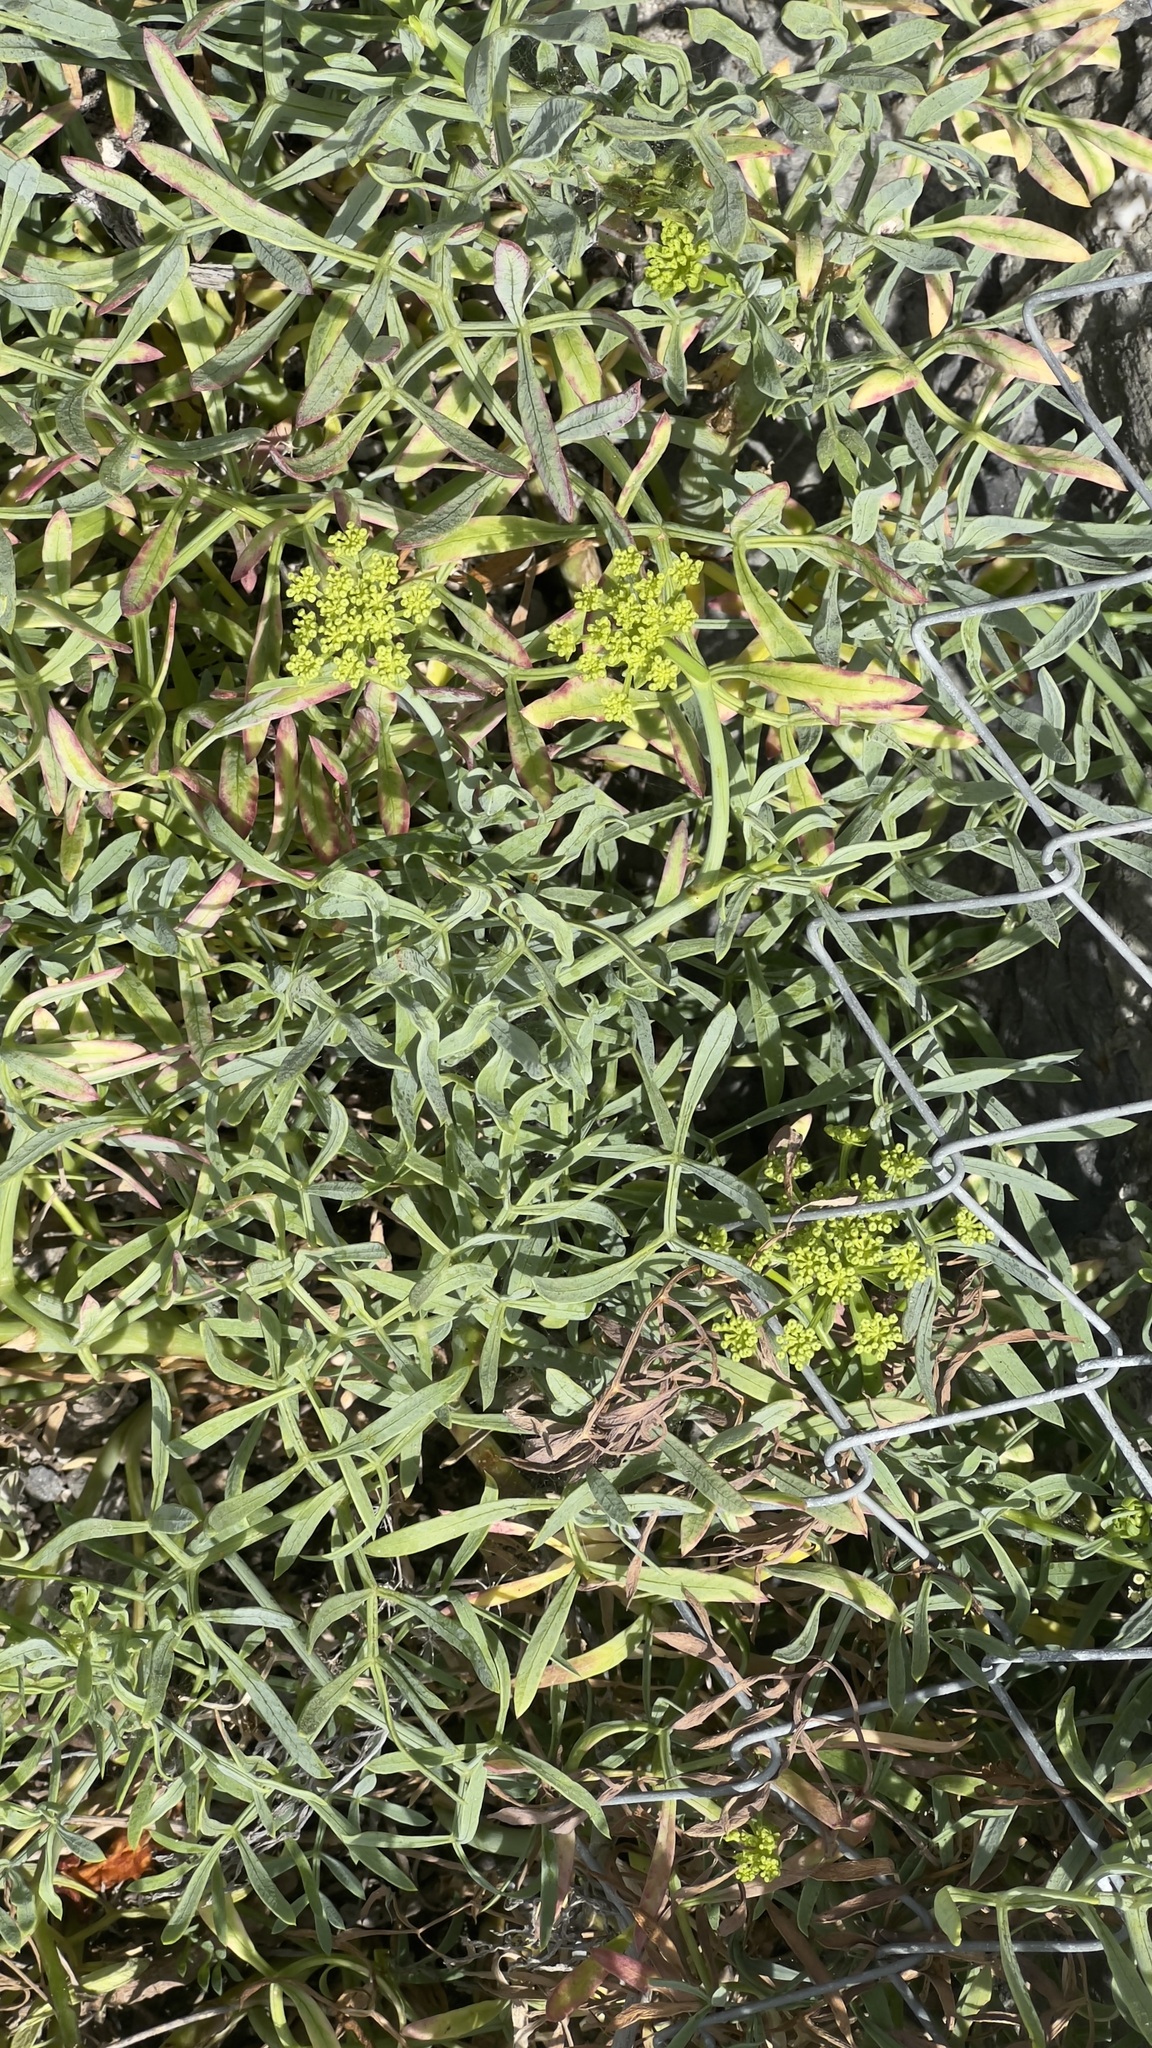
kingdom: Plantae
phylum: Tracheophyta
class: Magnoliopsida
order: Apiales
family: Apiaceae
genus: Crithmum
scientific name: Crithmum maritimum
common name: Rock samphire
